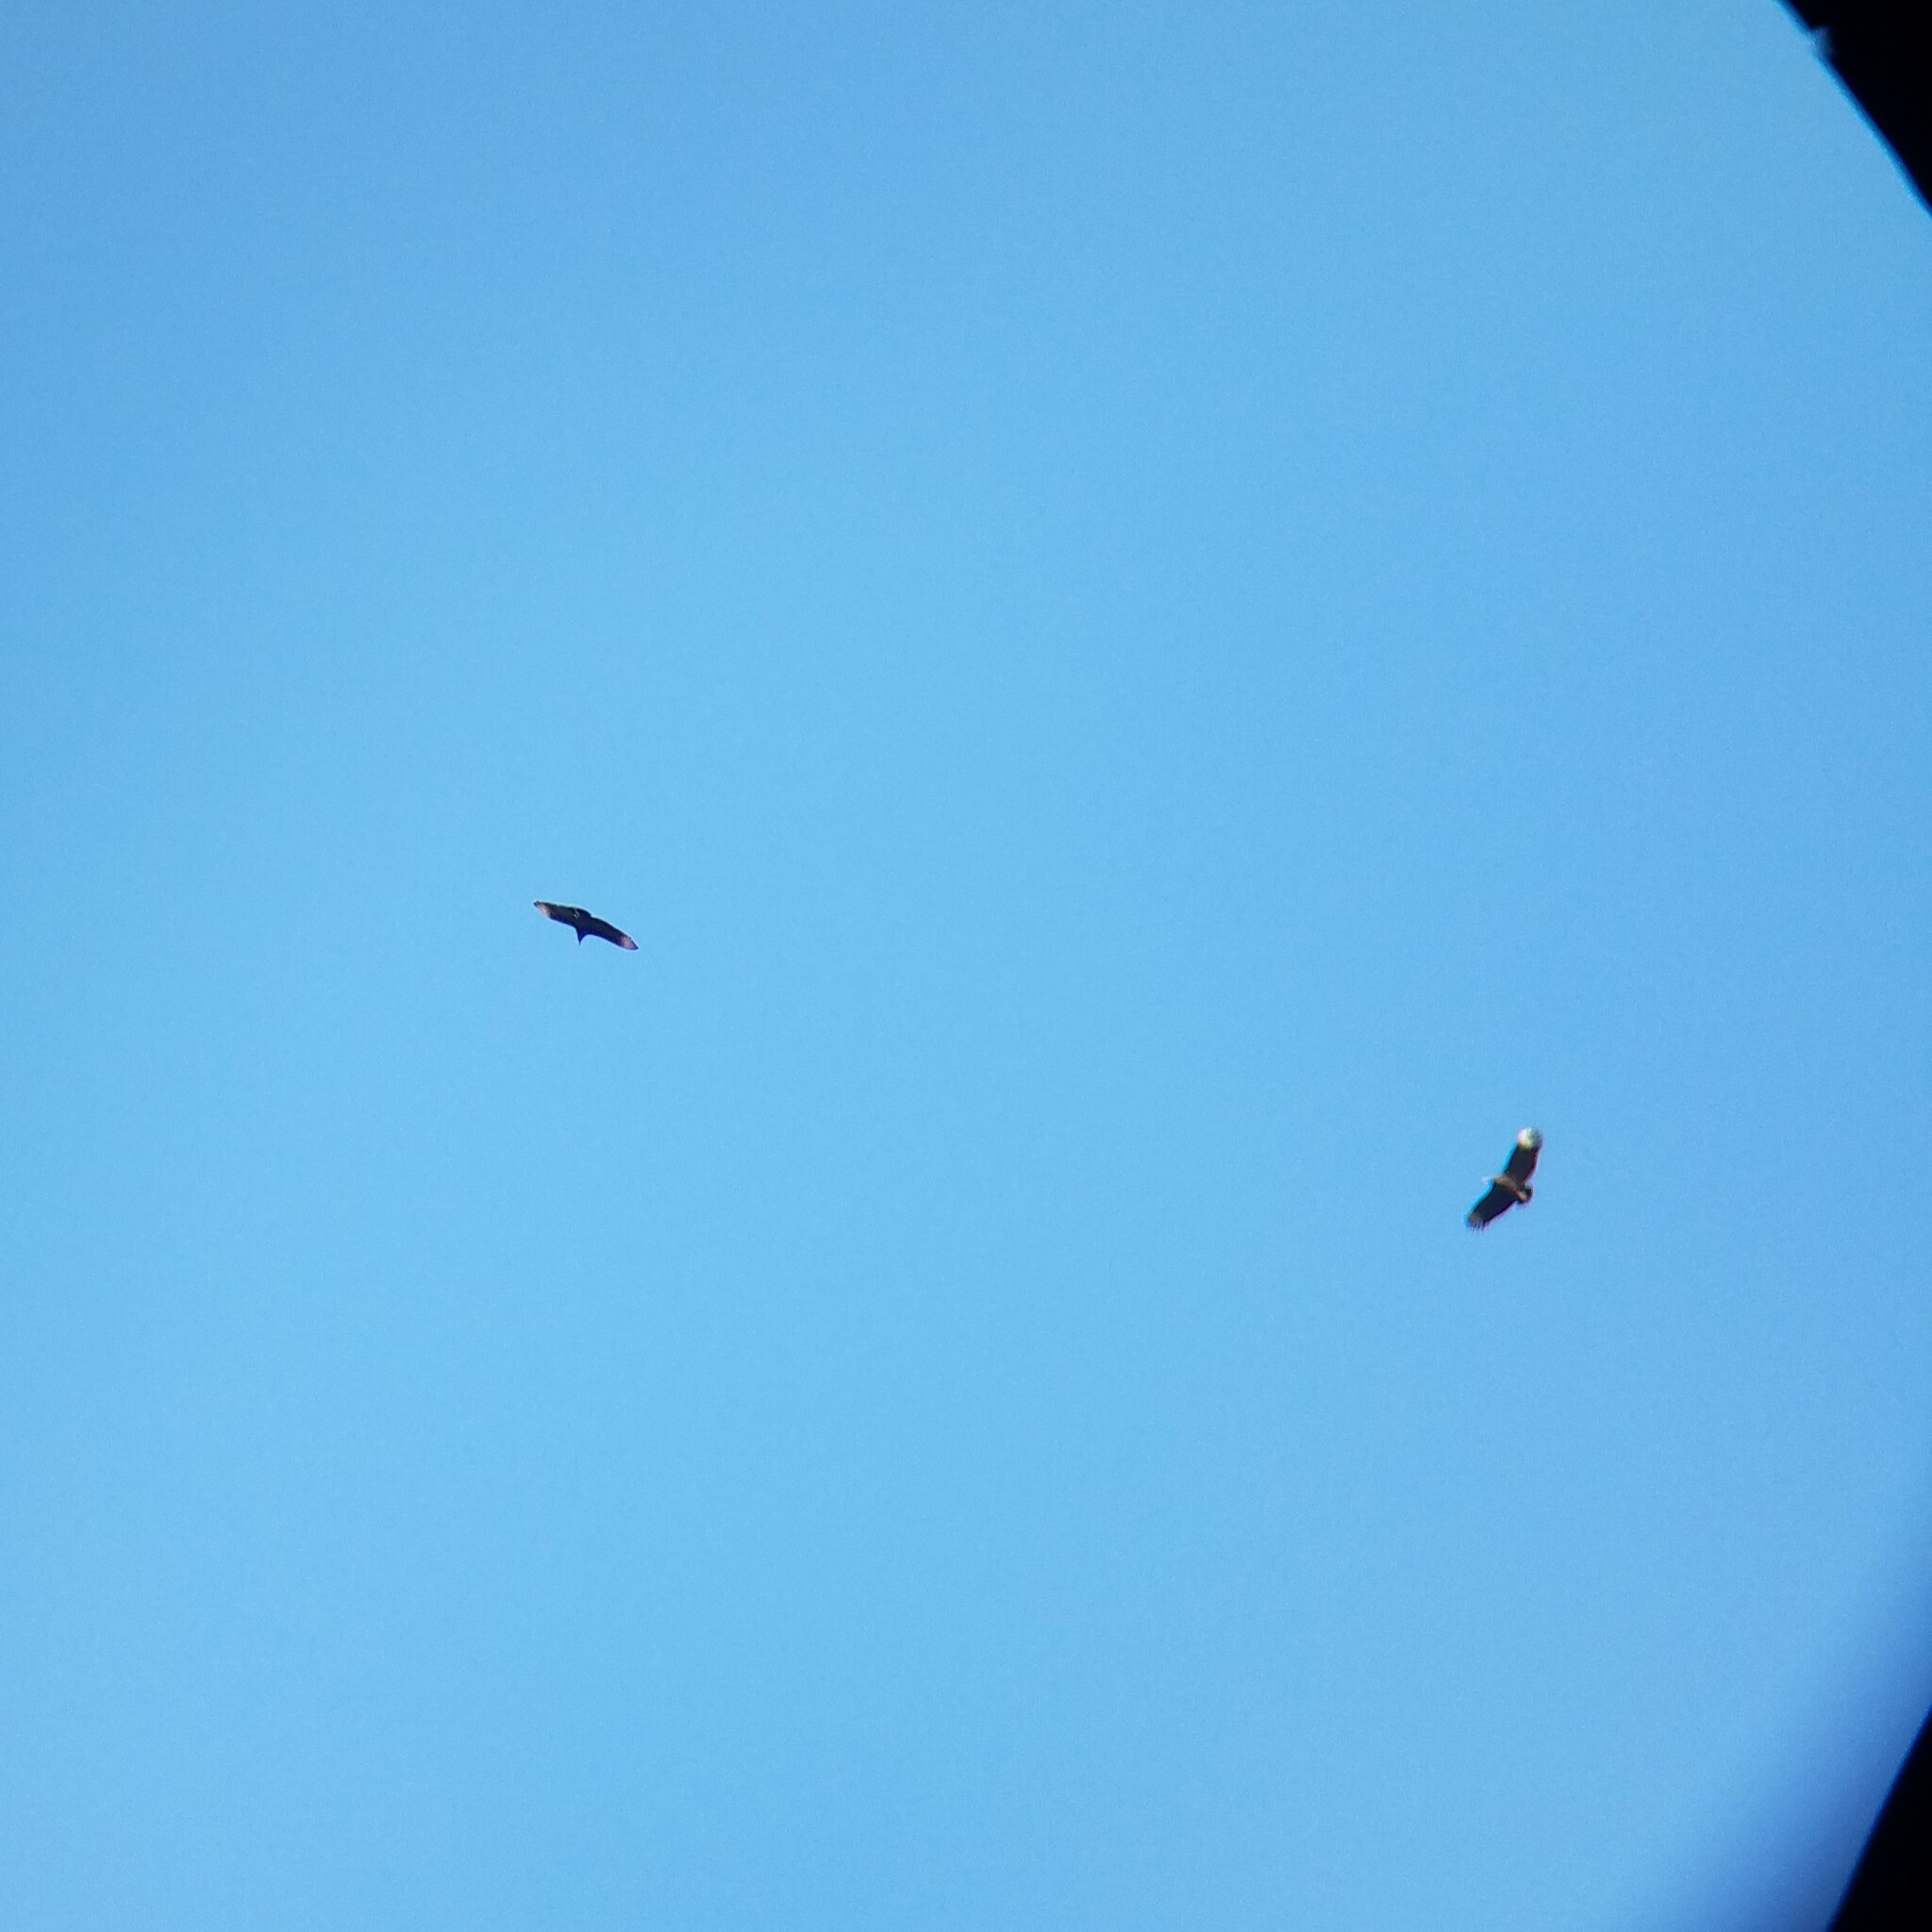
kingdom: Animalia
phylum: Chordata
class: Aves
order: Accipitriformes
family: Cathartidae
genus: Coragyps
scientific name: Coragyps atratus
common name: Black vulture
